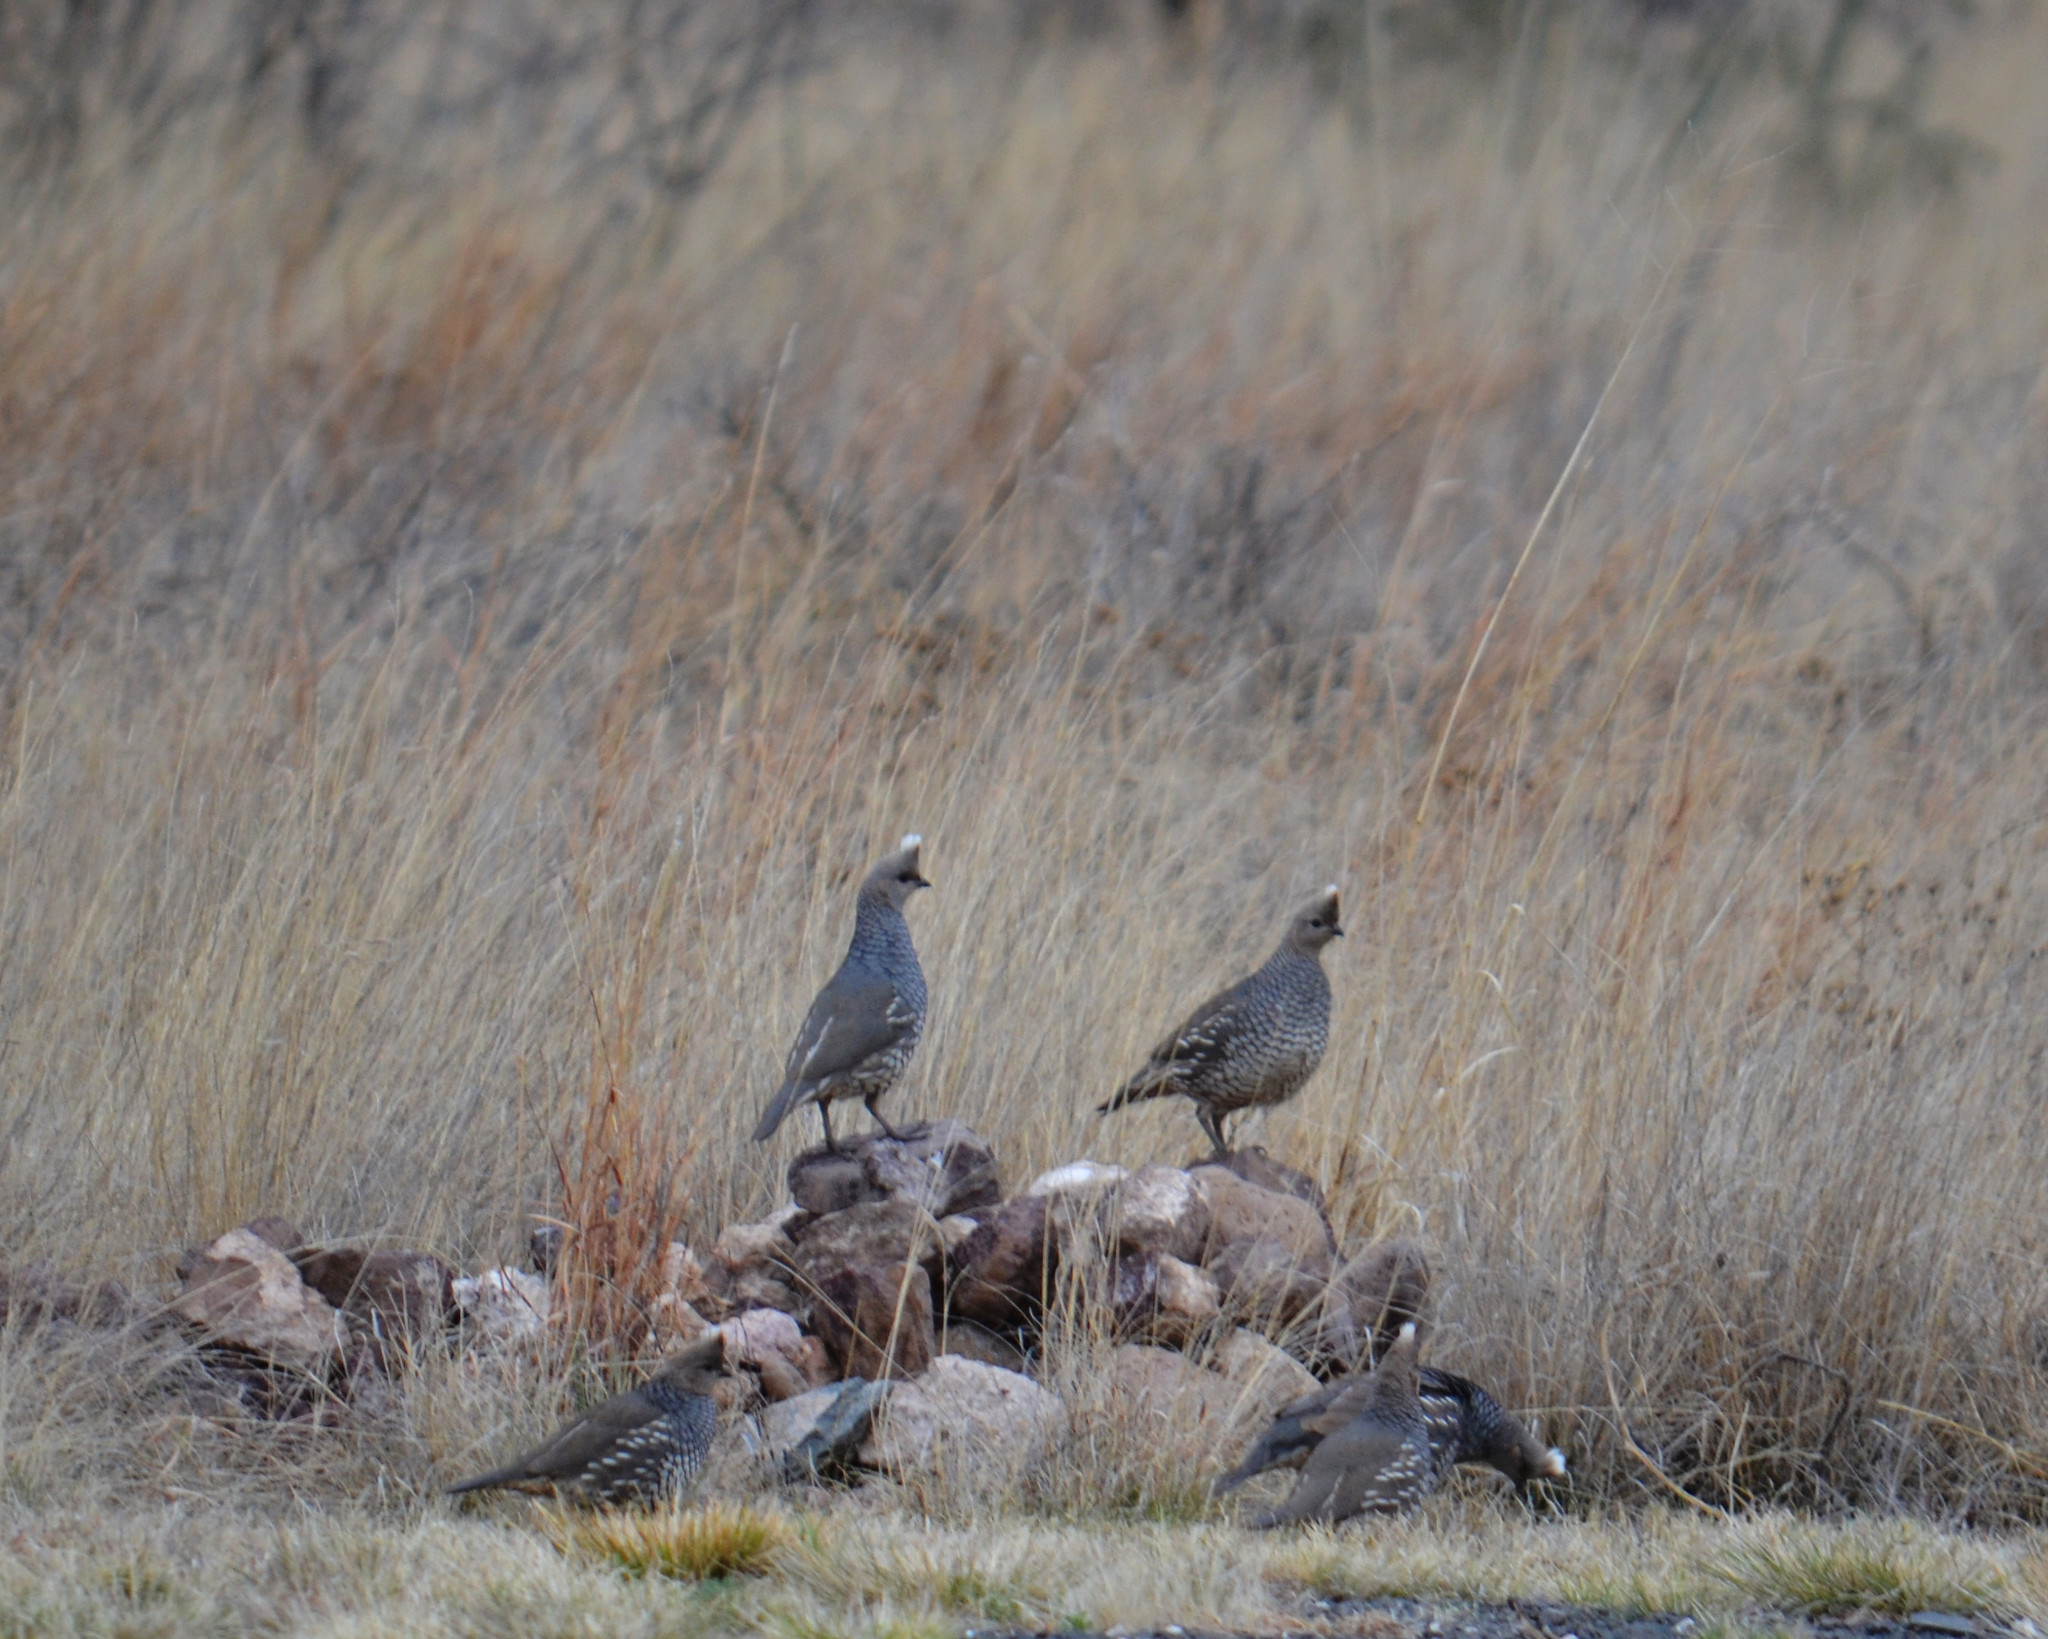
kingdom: Animalia
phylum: Chordata
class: Aves
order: Galliformes
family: Odontophoridae
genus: Callipepla
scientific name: Callipepla squamata
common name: Scaled quail
